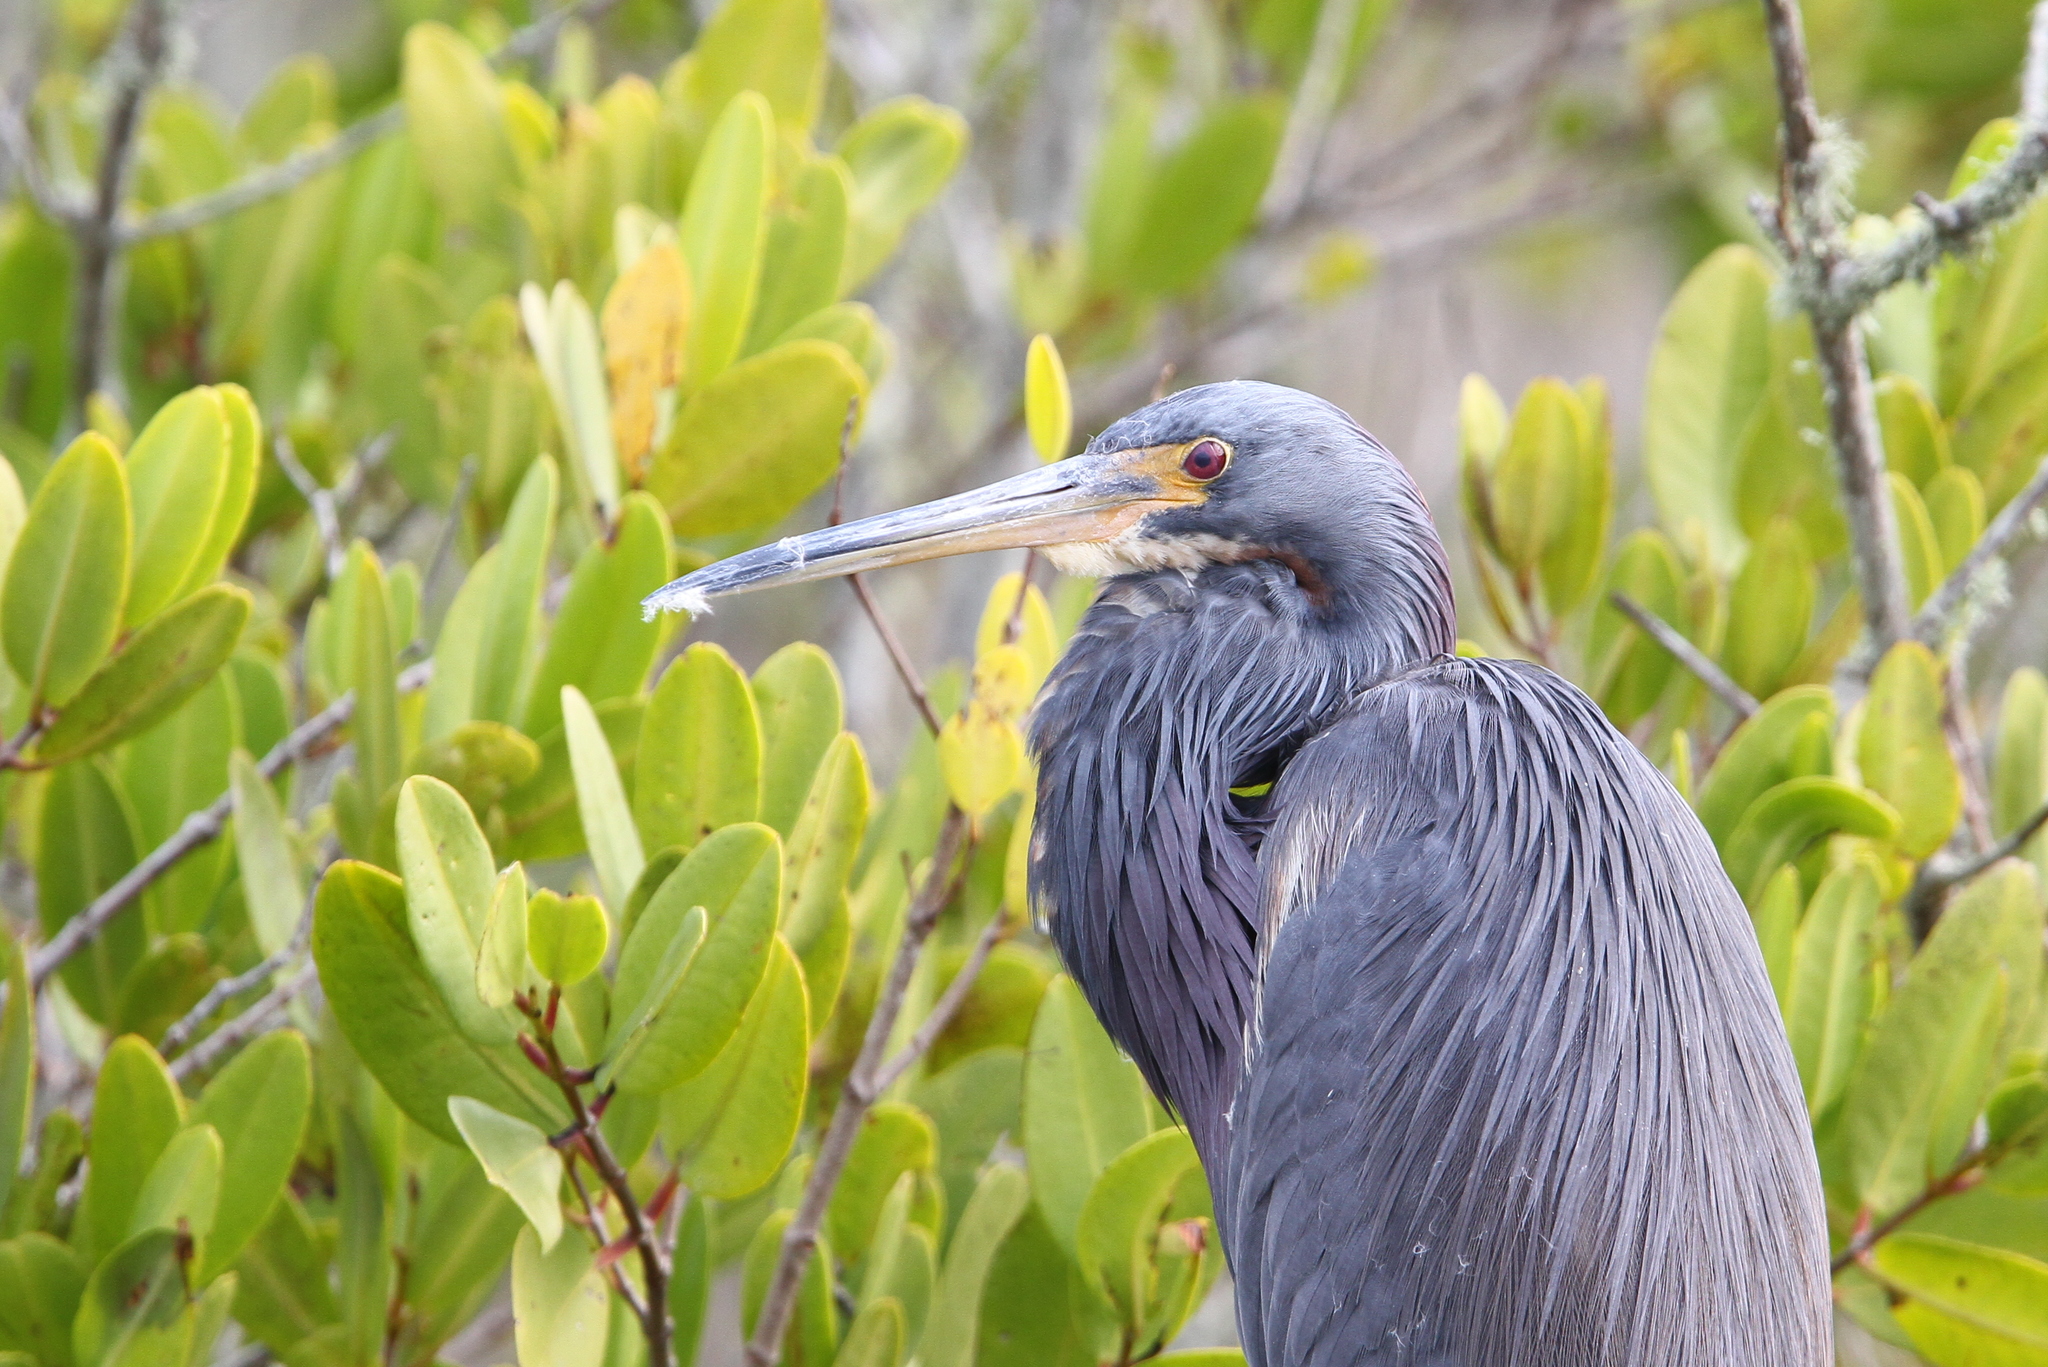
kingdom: Animalia
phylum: Chordata
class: Aves
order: Pelecaniformes
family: Ardeidae
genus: Egretta
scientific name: Egretta tricolor
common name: Tricolored heron
